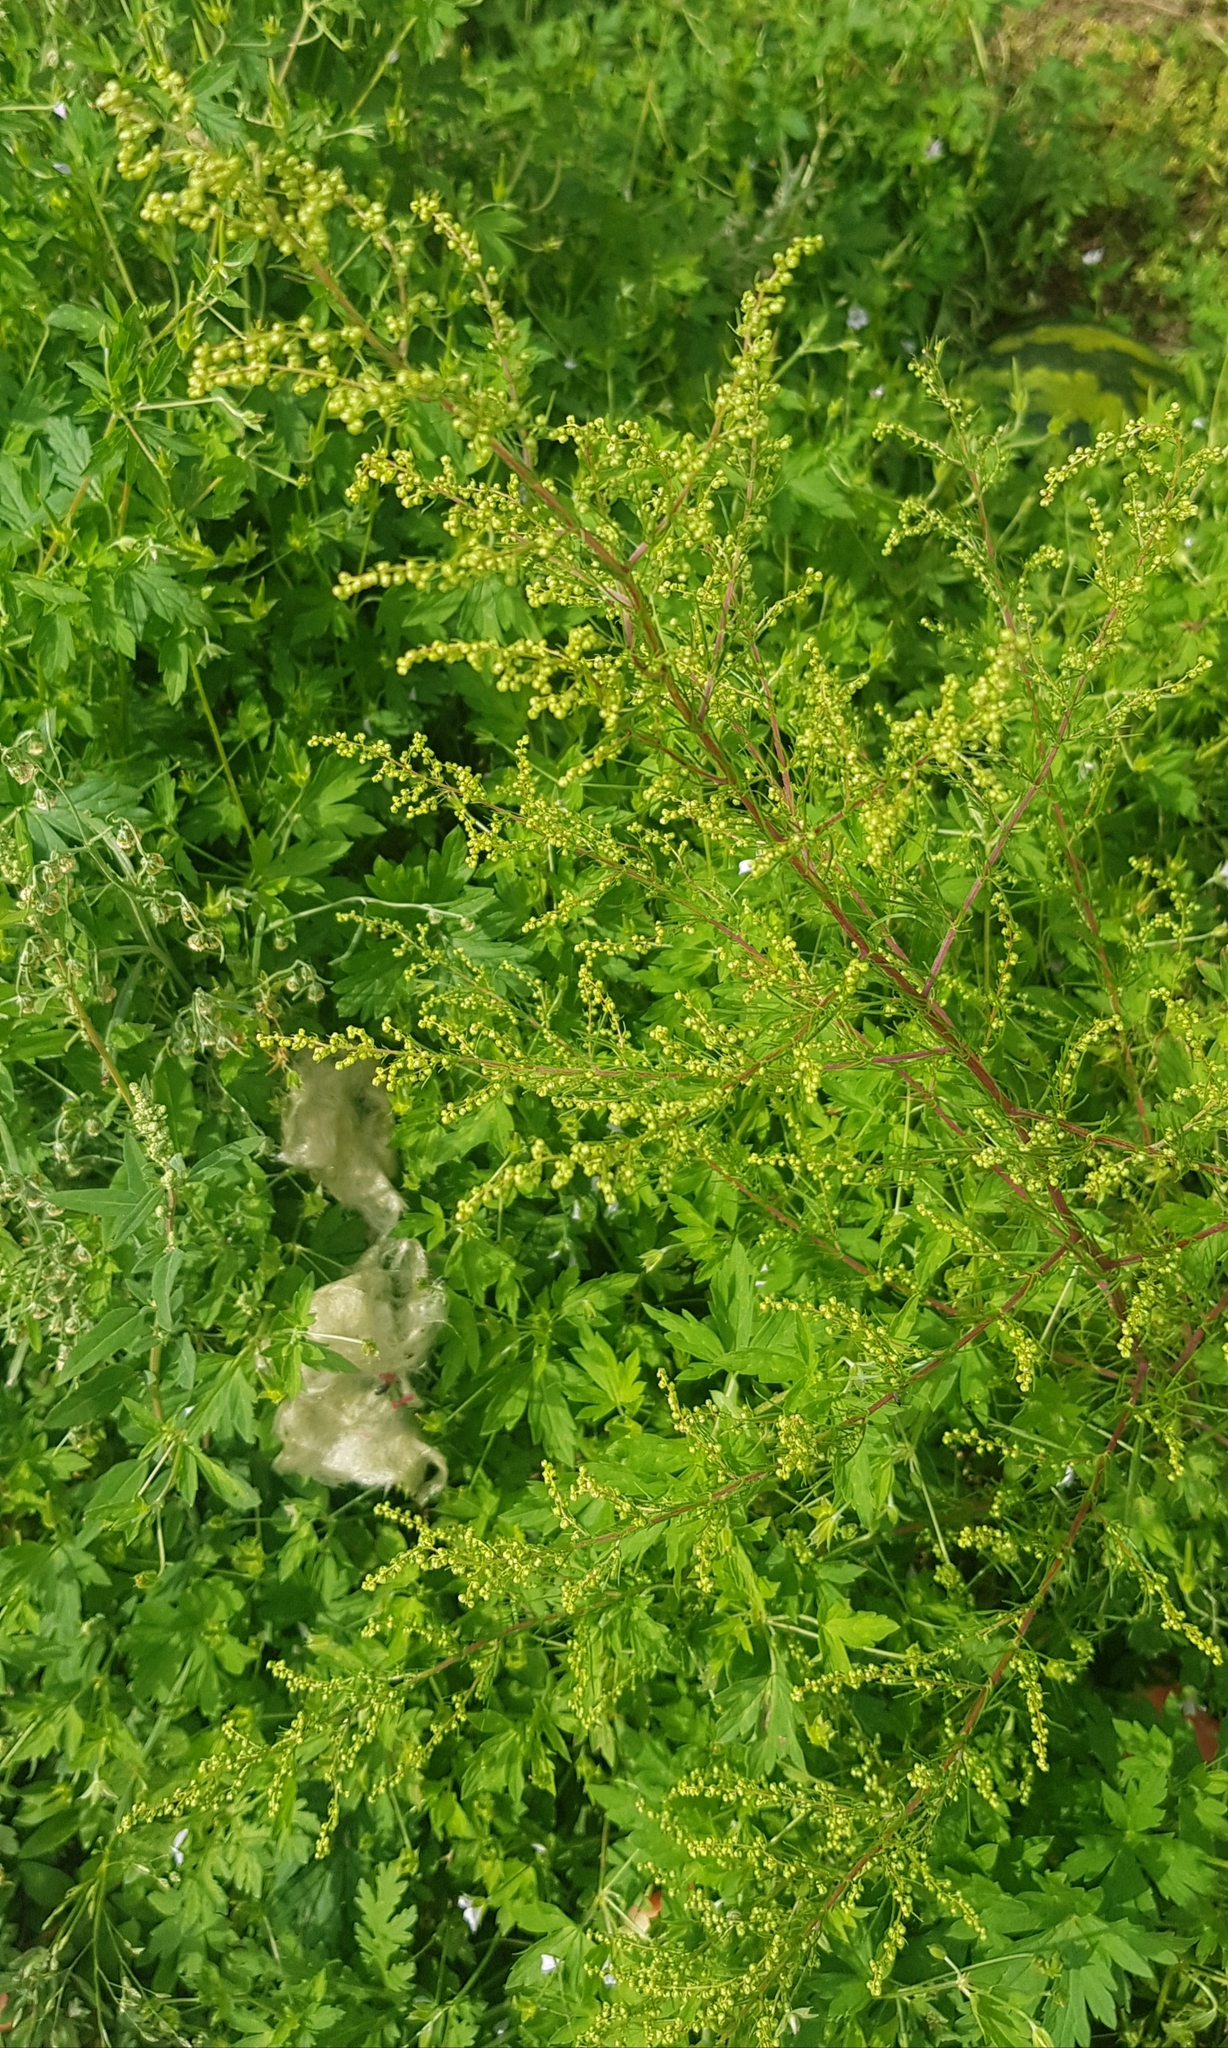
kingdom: Plantae
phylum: Tracheophyta
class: Magnoliopsida
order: Asterales
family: Asteraceae
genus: Artemisia
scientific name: Artemisia scoparia
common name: Redstem wormwood
